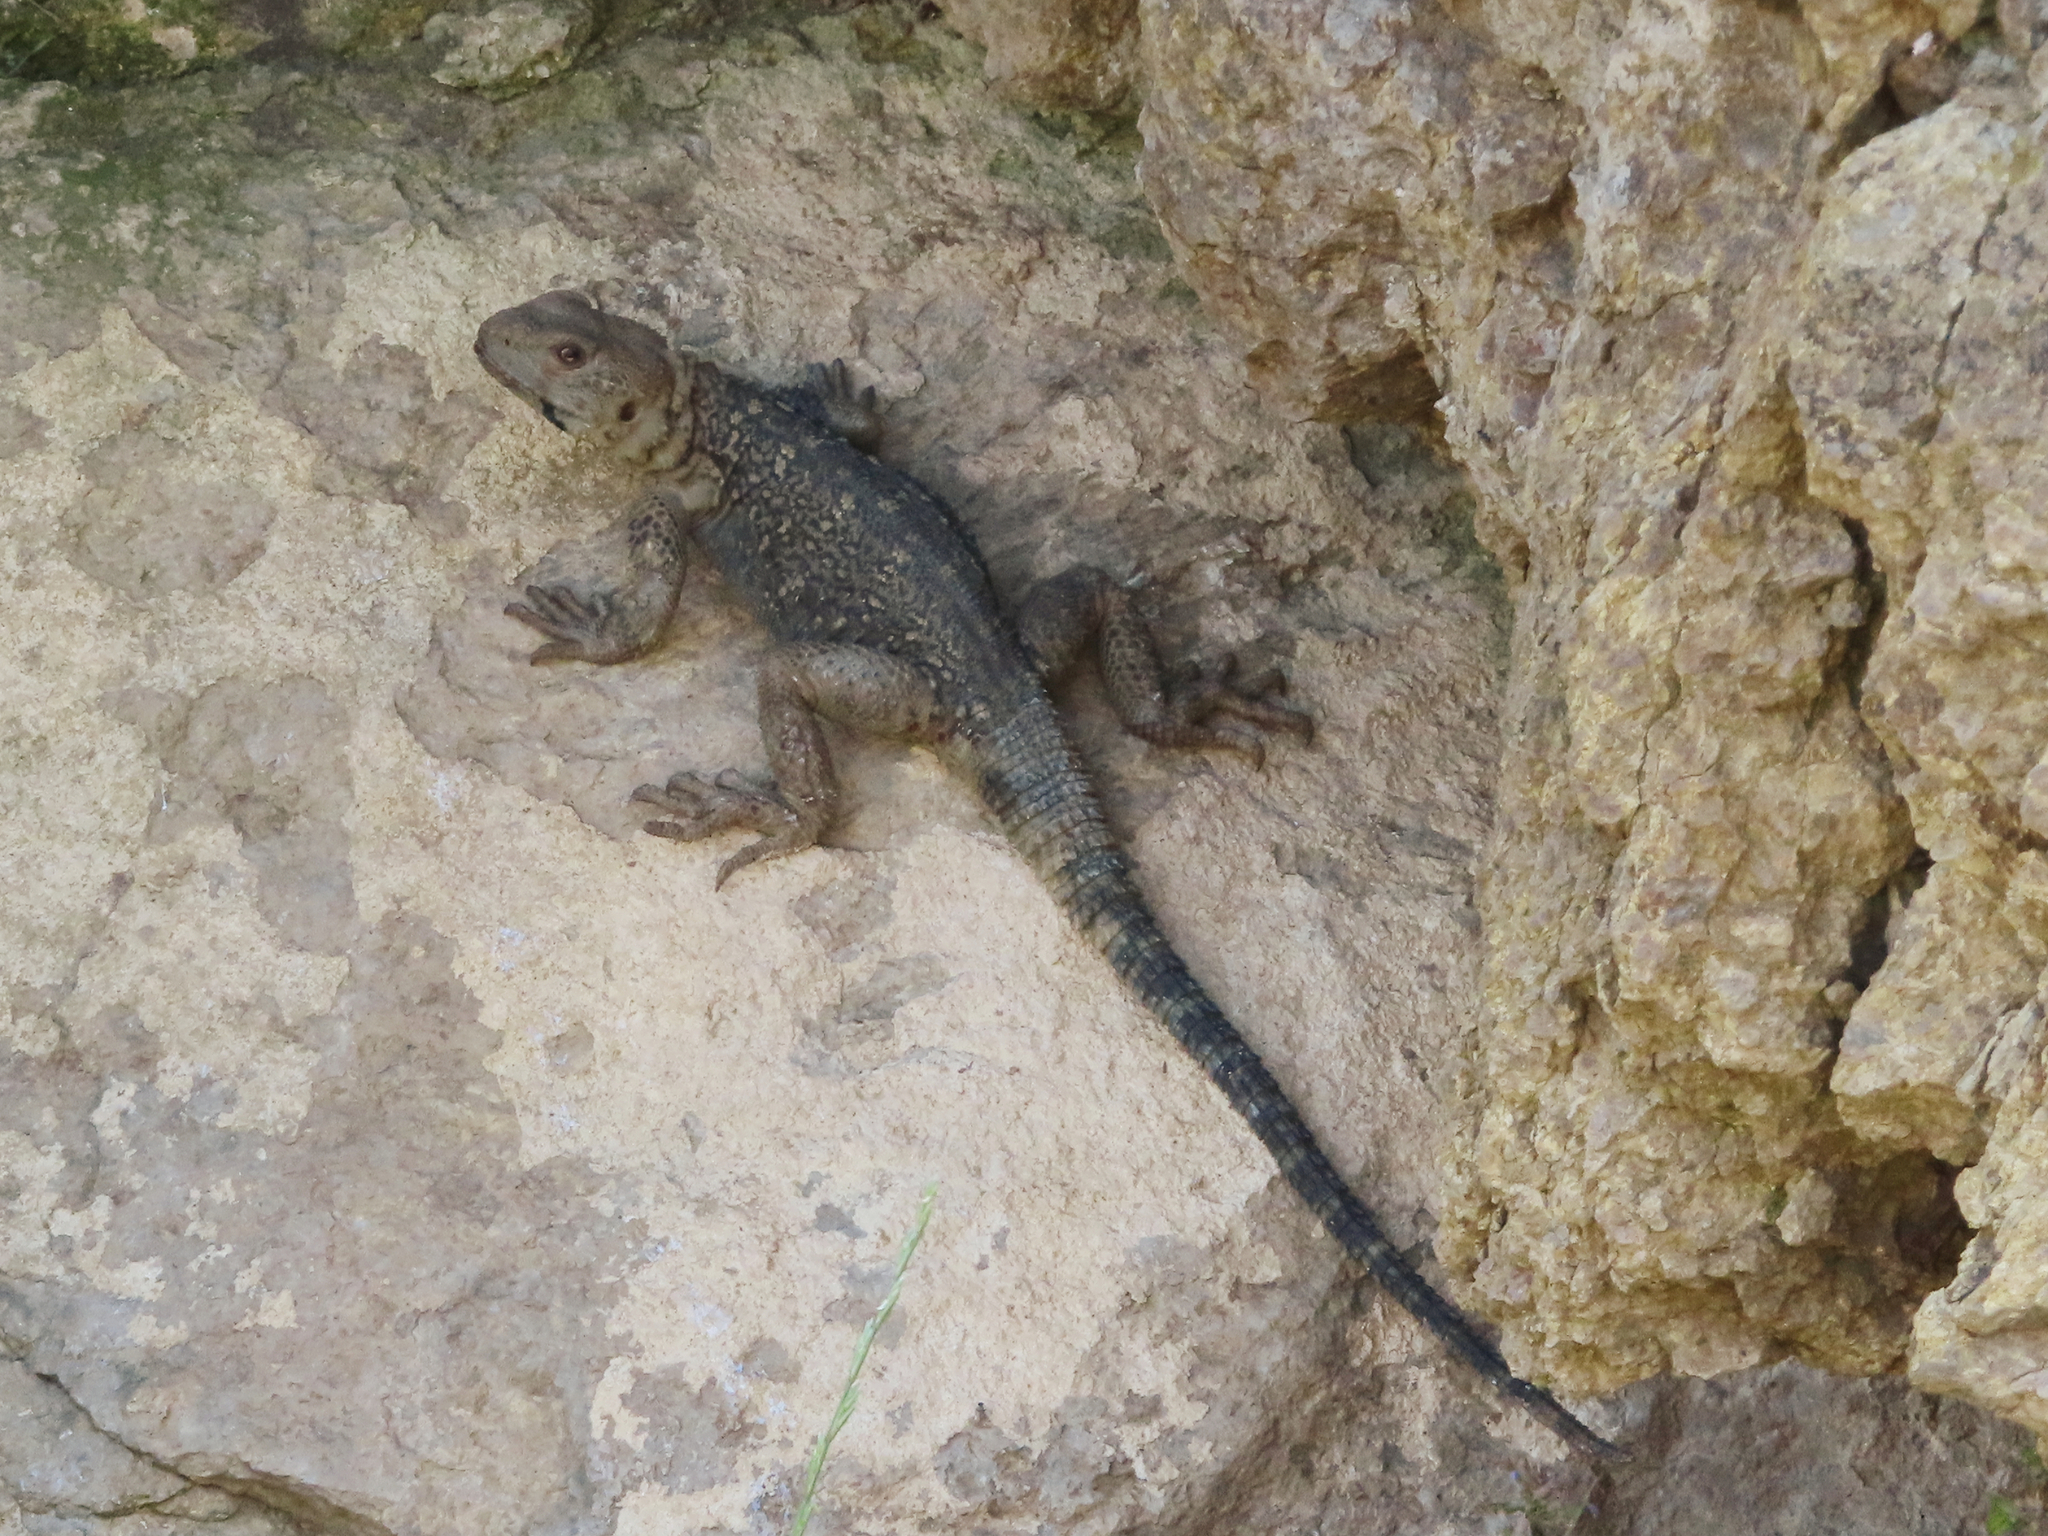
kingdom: Animalia
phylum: Chordata
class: Squamata
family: Agamidae
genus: Paralaudakia
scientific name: Paralaudakia caucasia
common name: Caucasian agama
